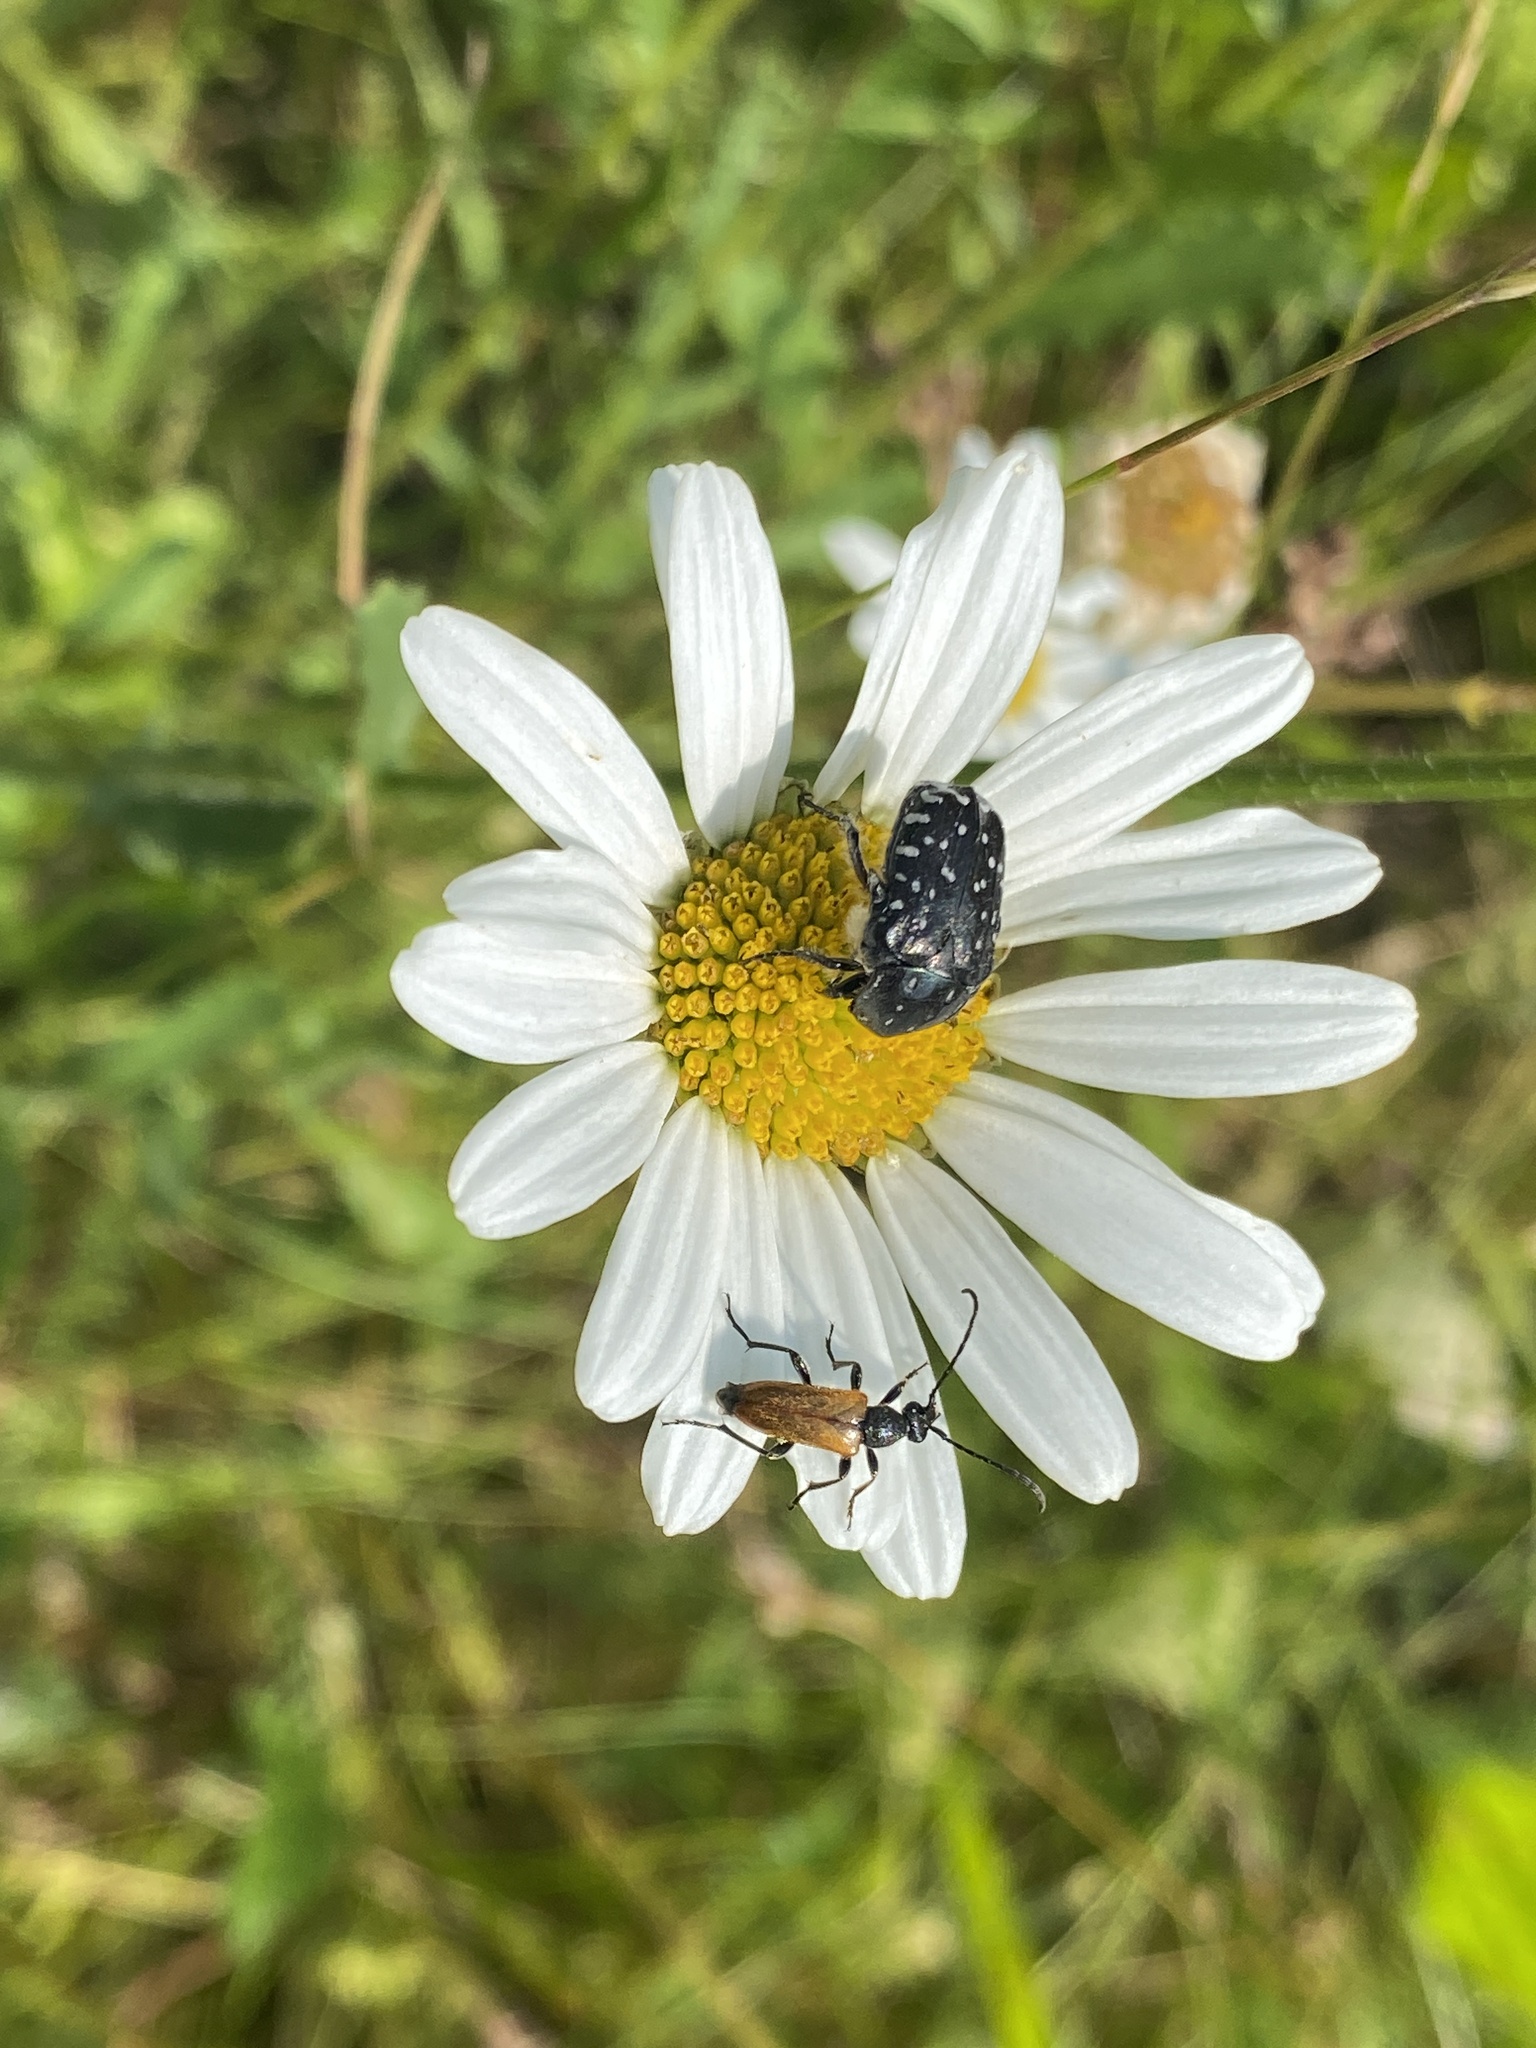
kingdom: Animalia
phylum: Arthropoda
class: Insecta
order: Coleoptera
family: Scarabaeidae
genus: Oxythyrea
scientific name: Oxythyrea funesta
